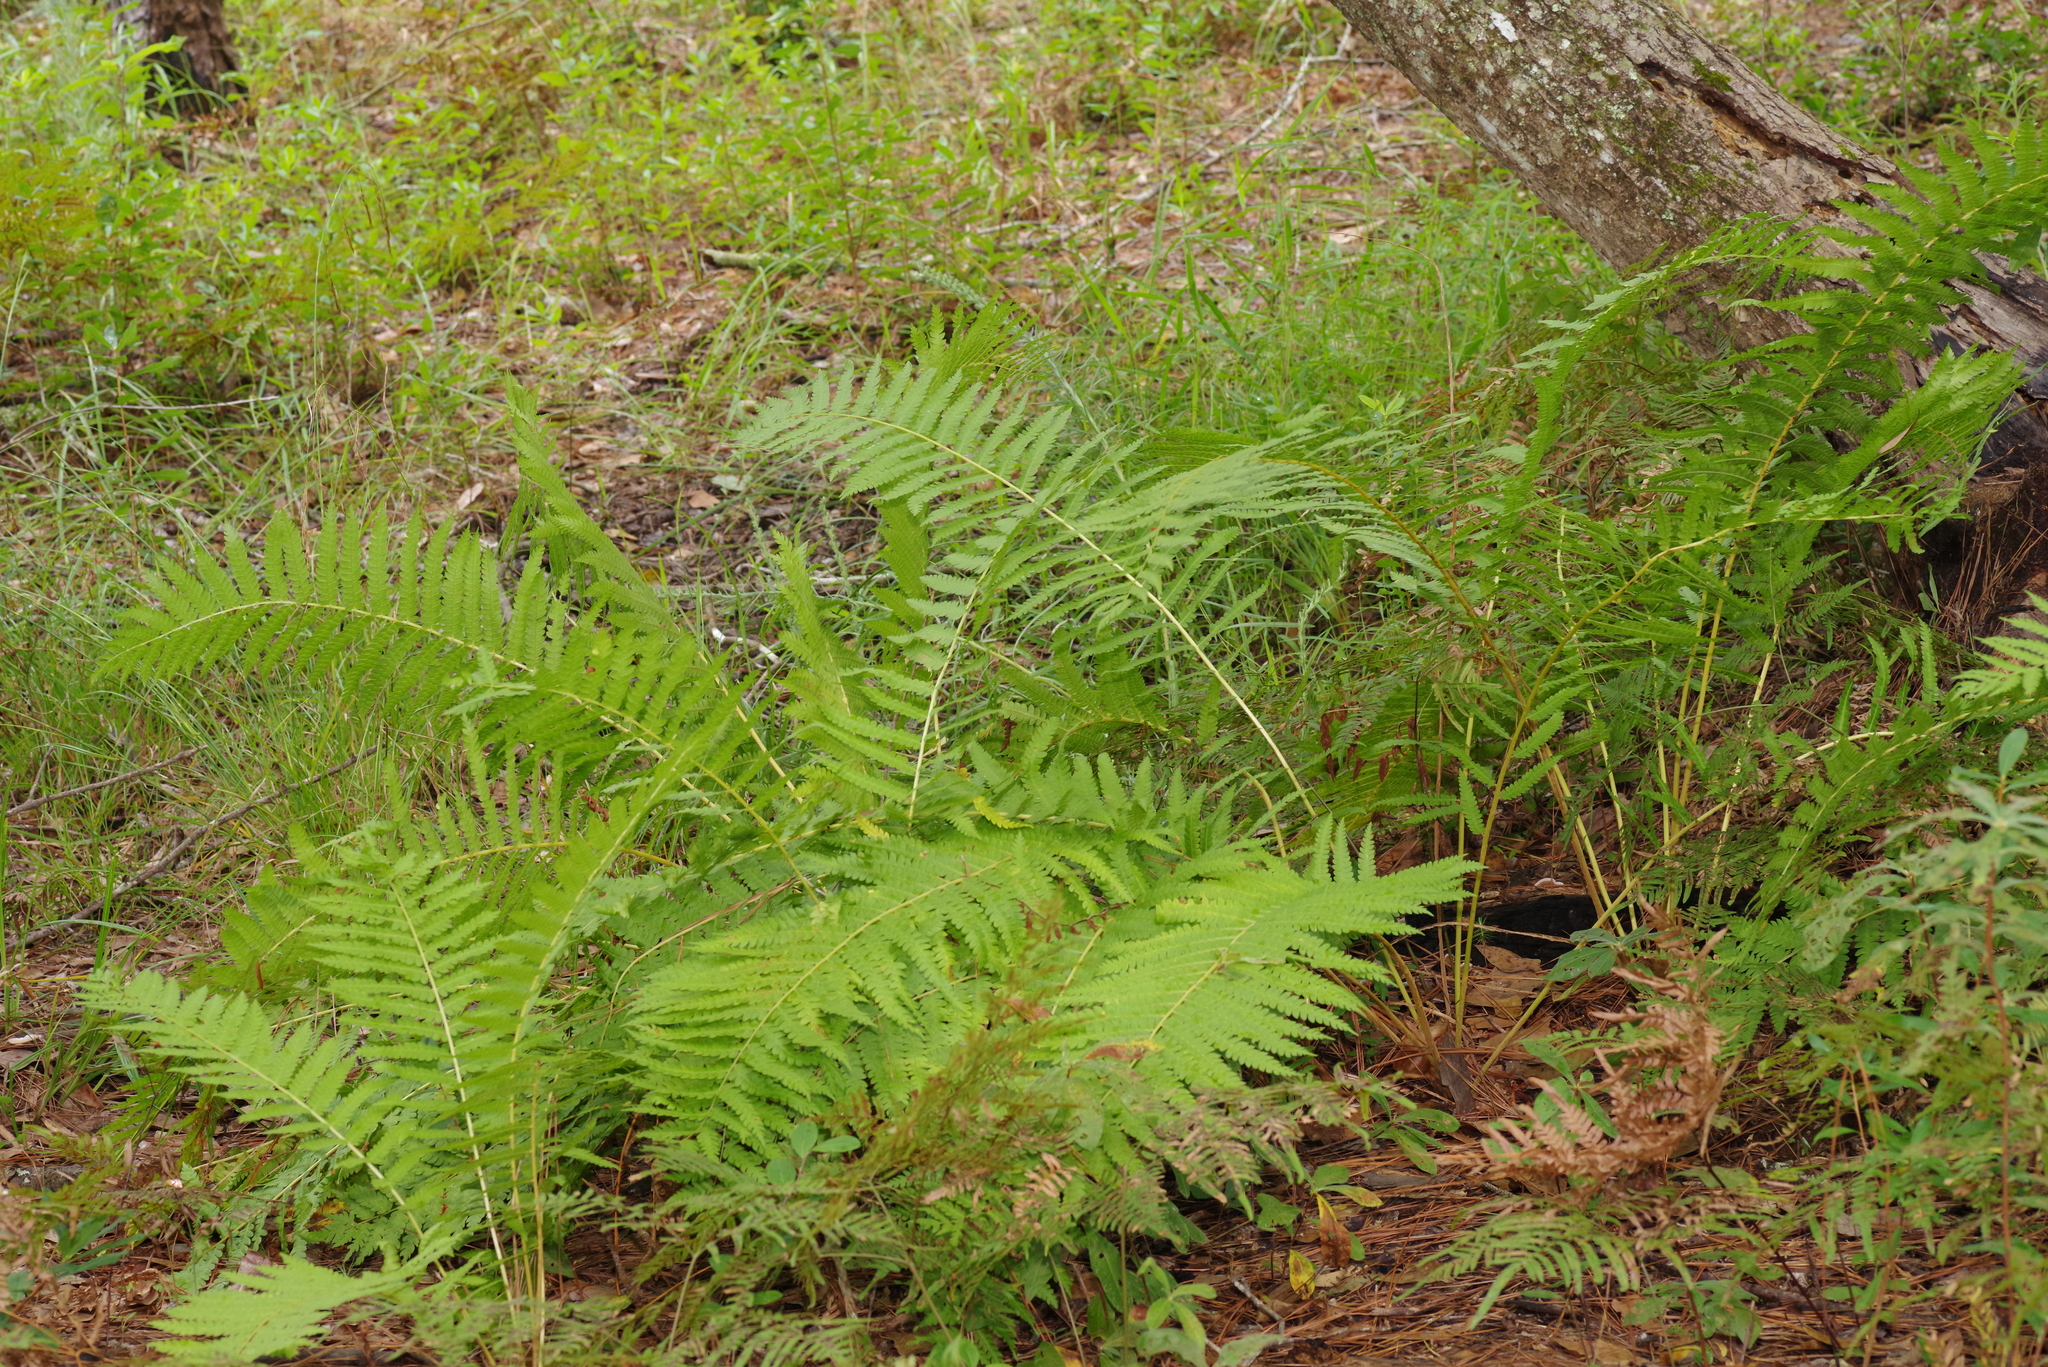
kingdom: Plantae
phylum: Tracheophyta
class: Polypodiopsida
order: Osmundales
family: Osmundaceae
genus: Osmundastrum
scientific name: Osmundastrum cinnamomeum
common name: Cinnamon fern
